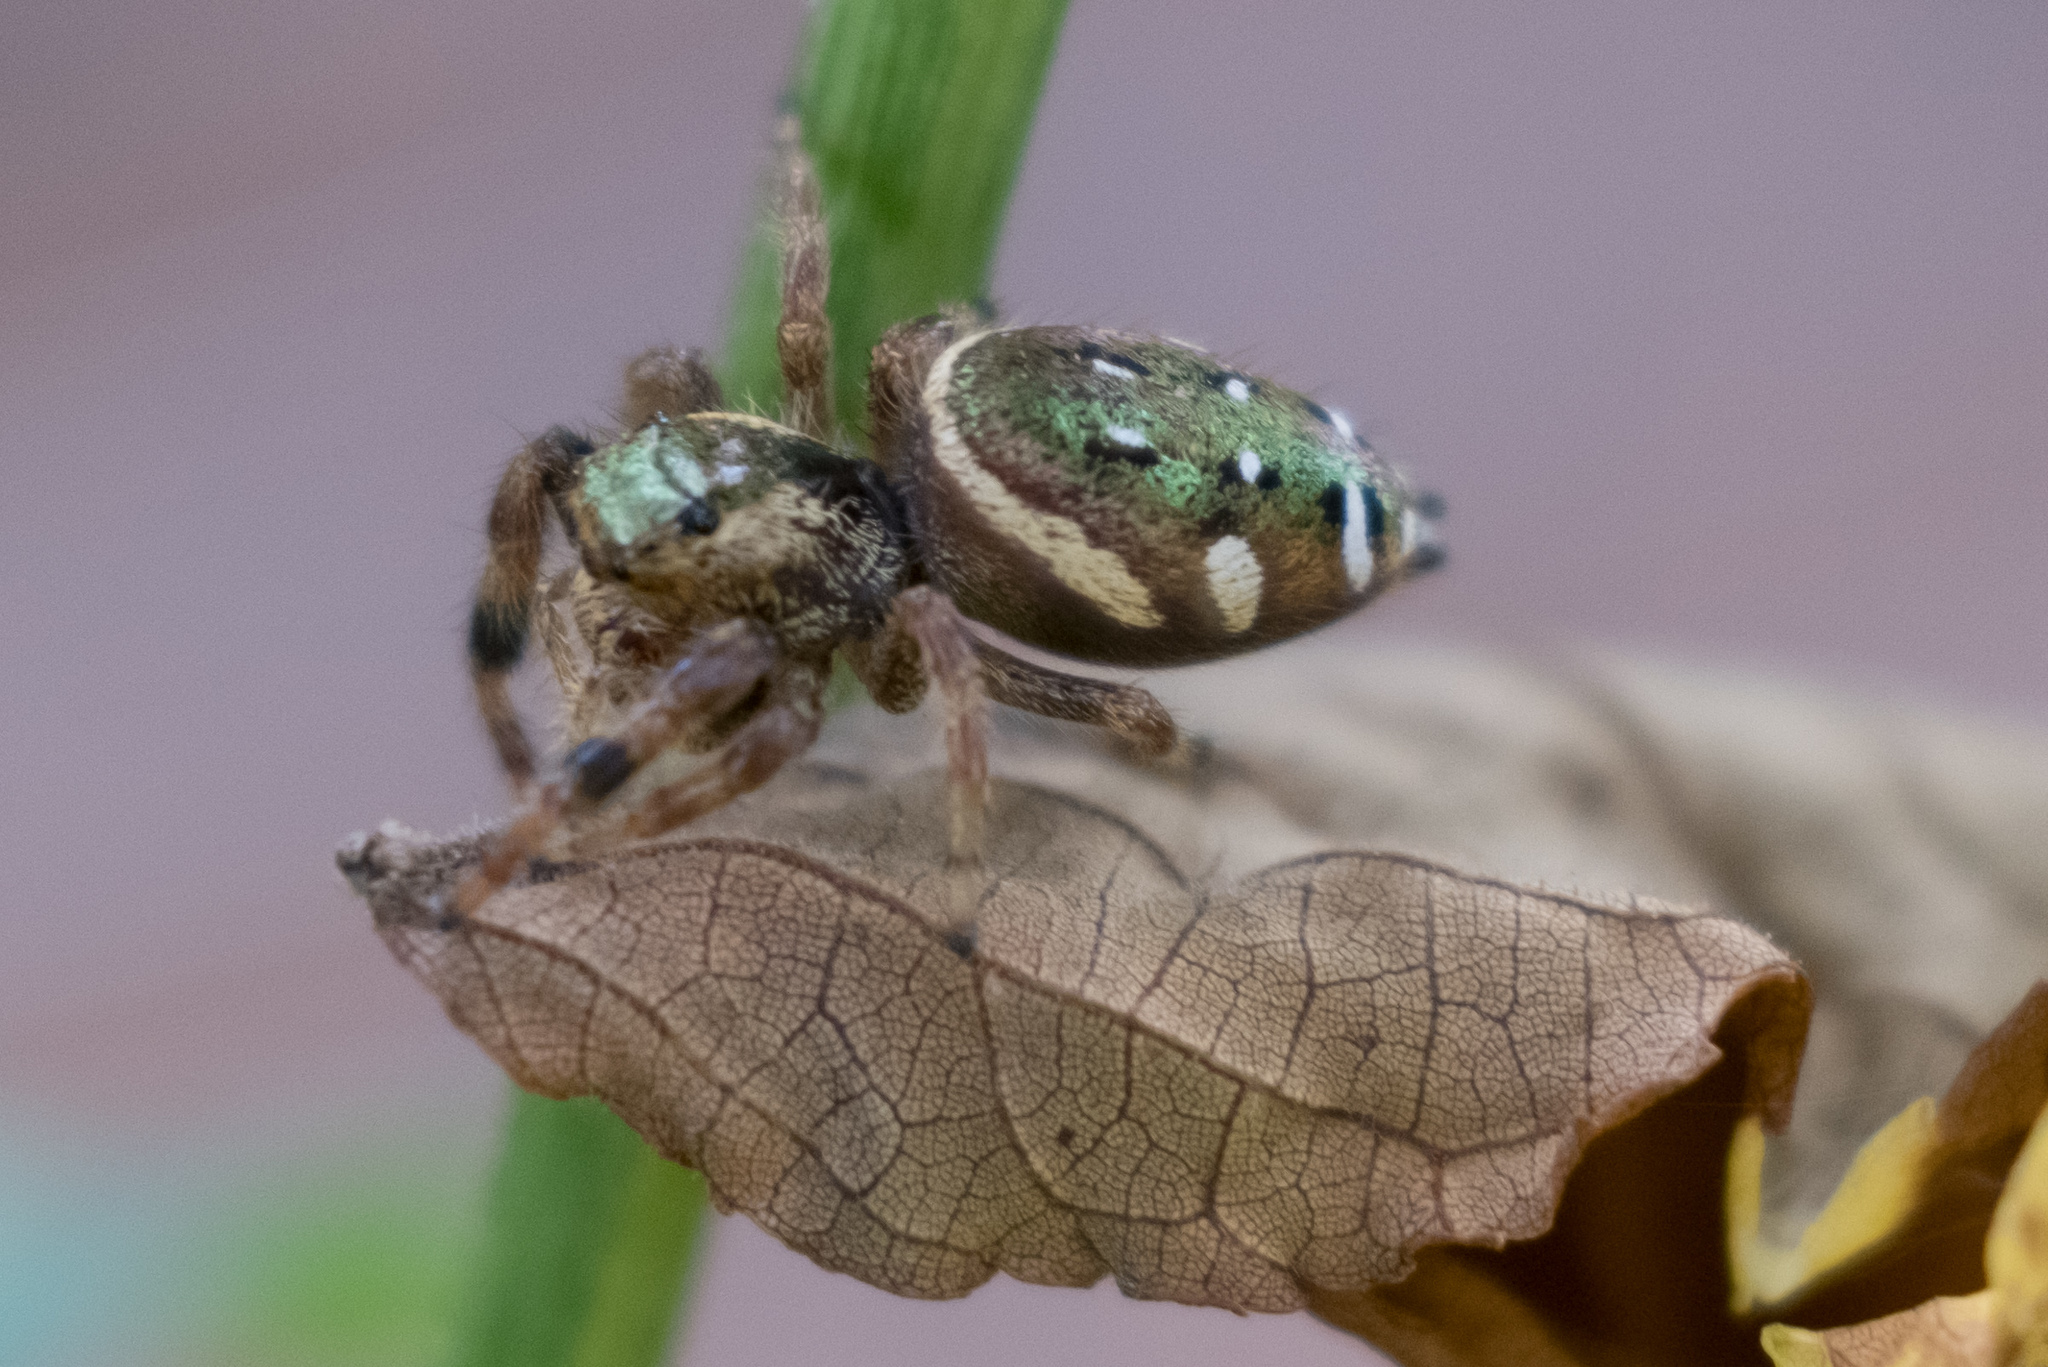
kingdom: Animalia
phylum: Arthropoda
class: Arachnida
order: Araneae
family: Salticidae
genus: Paraphidippus
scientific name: Paraphidippus aurantius
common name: Jumping spiders
